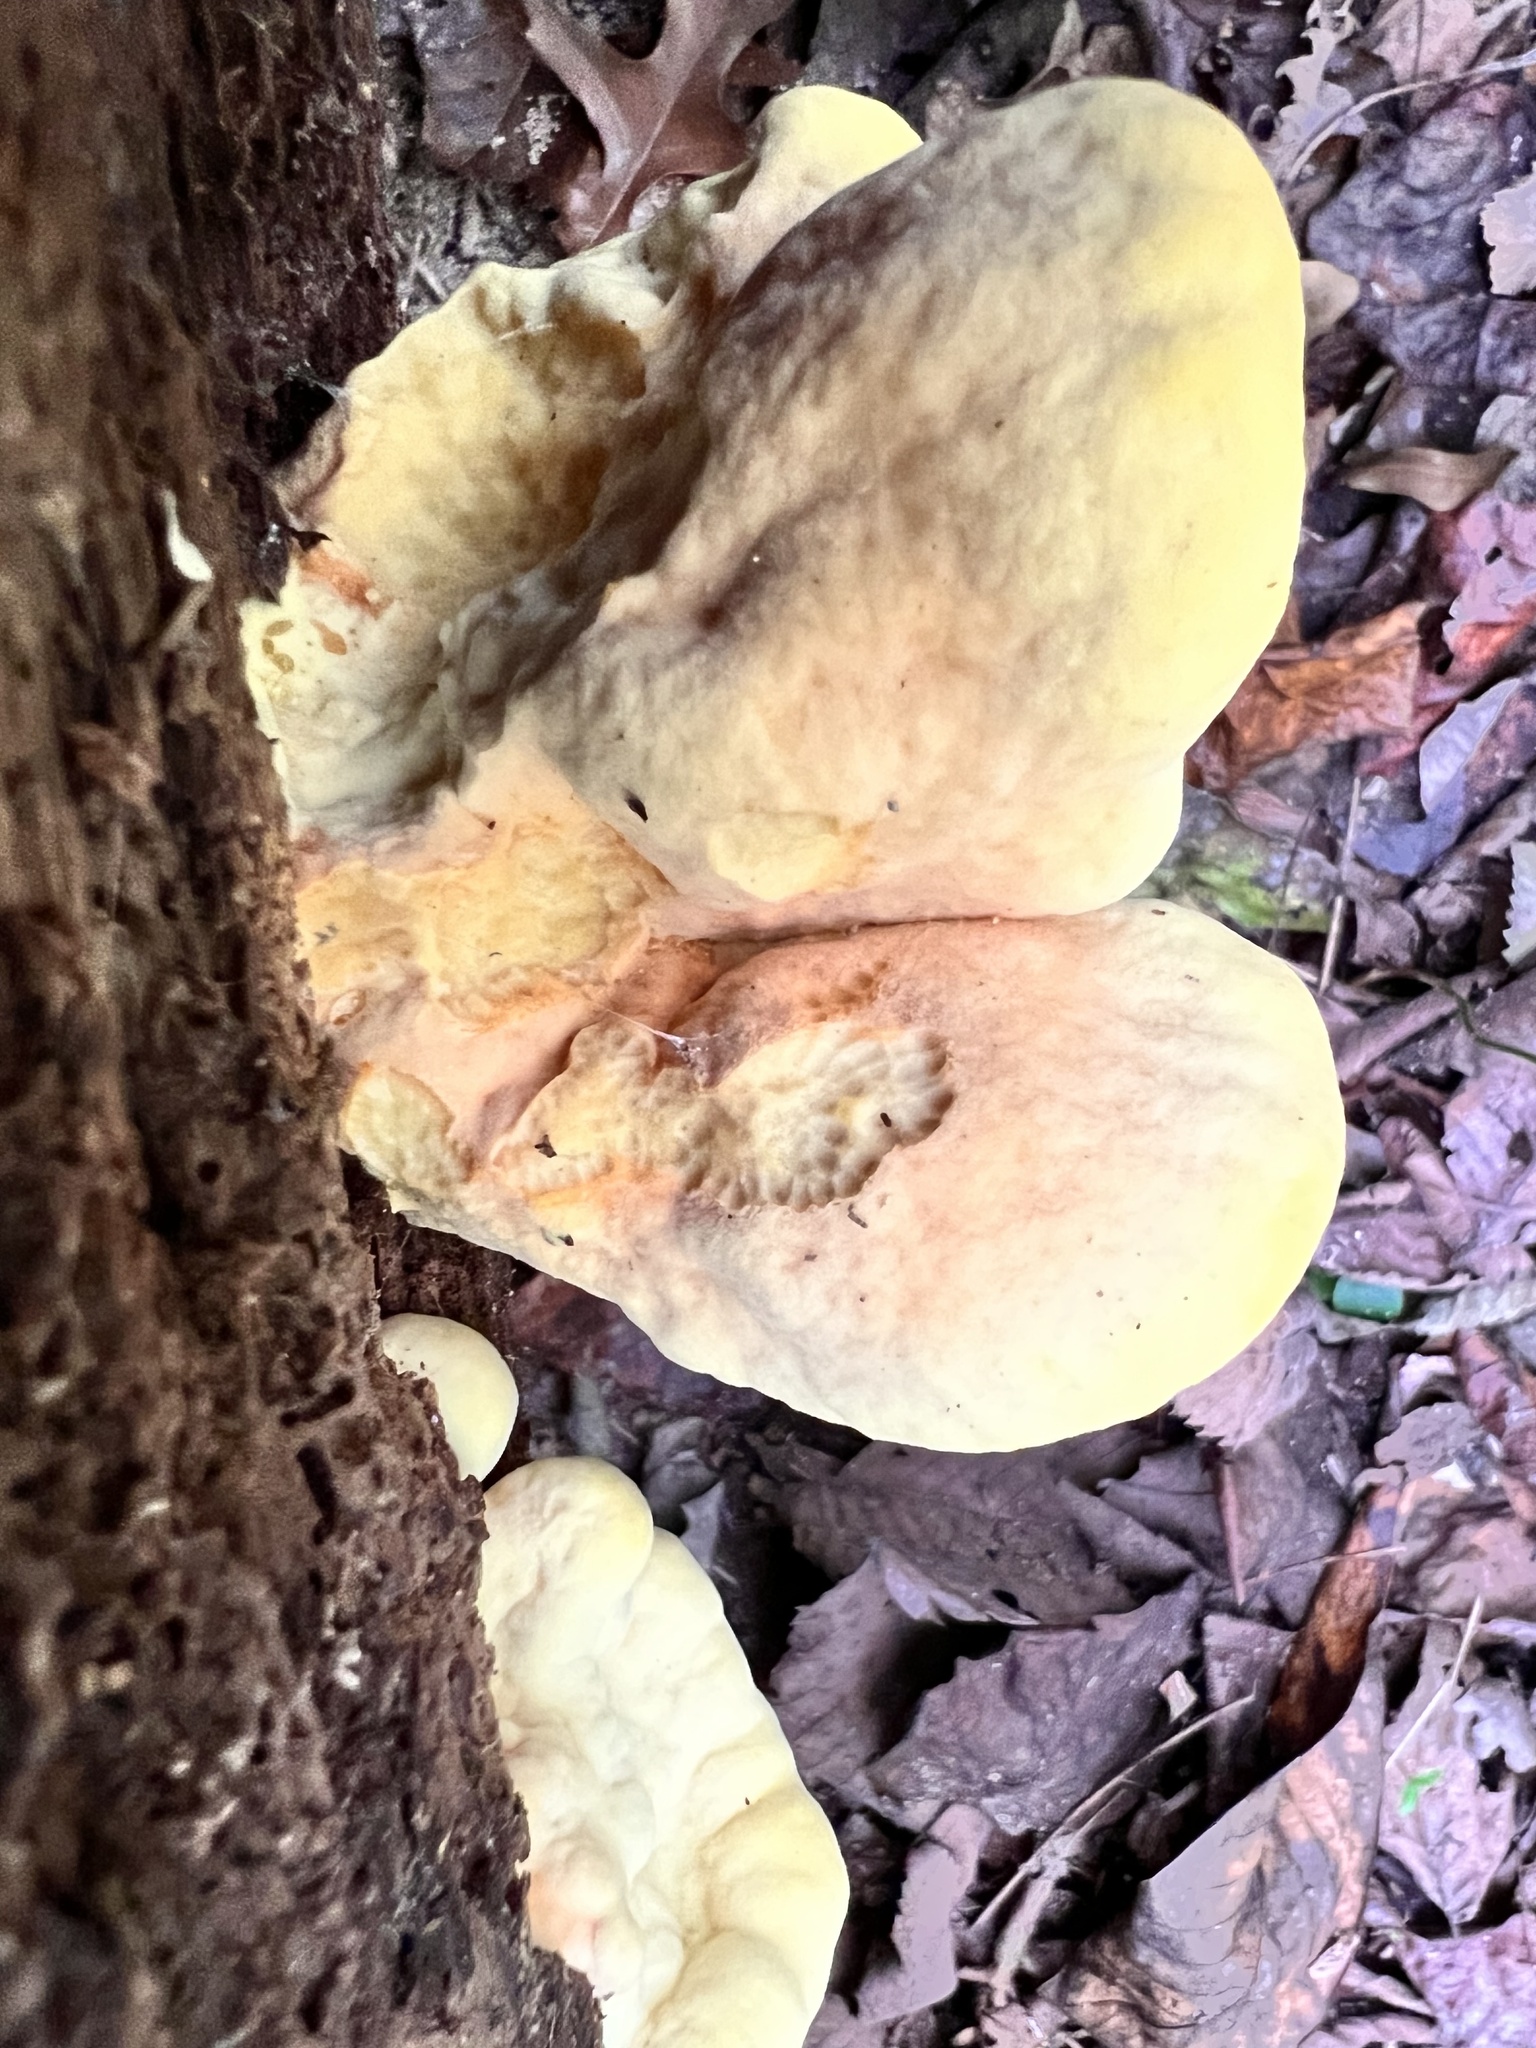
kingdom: Fungi
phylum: Basidiomycota
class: Agaricomycetes
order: Polyporales
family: Laetiporaceae
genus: Laetiporus
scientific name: Laetiporus sulphureus
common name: Chicken of the woods
